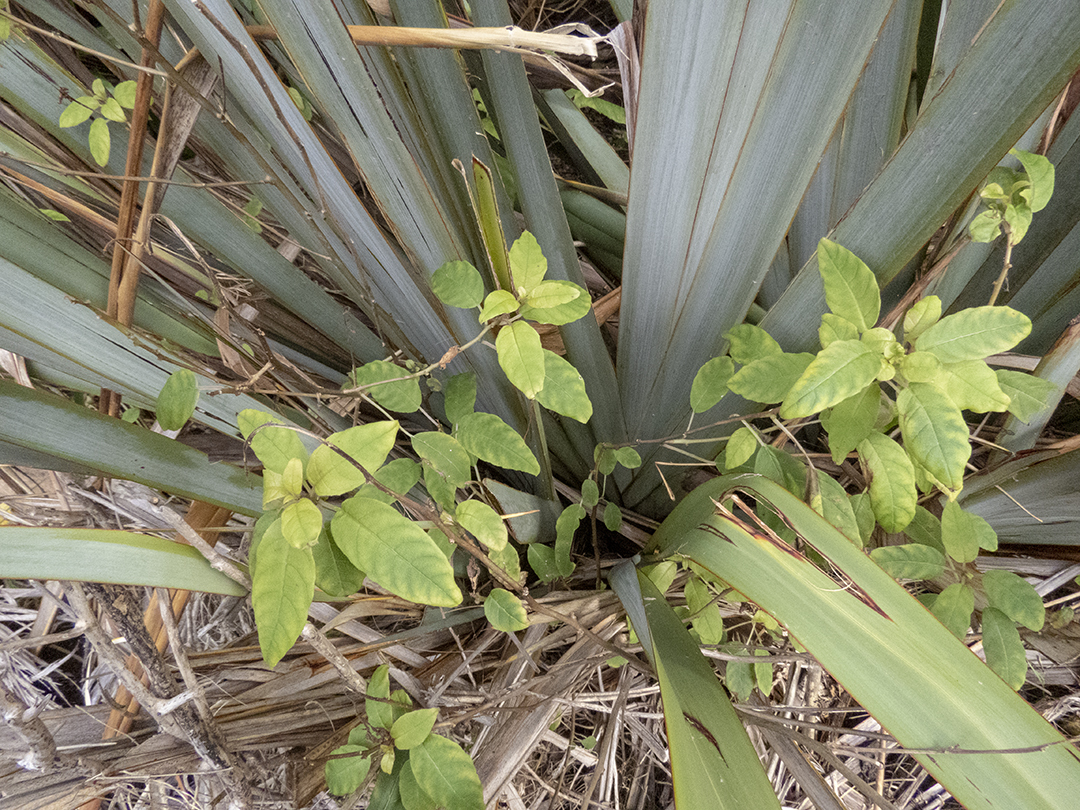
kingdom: Plantae
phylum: Tracheophyta
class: Magnoliopsida
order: Myrtales
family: Onagraceae
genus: Fuchsia
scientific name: Fuchsia colensoi
